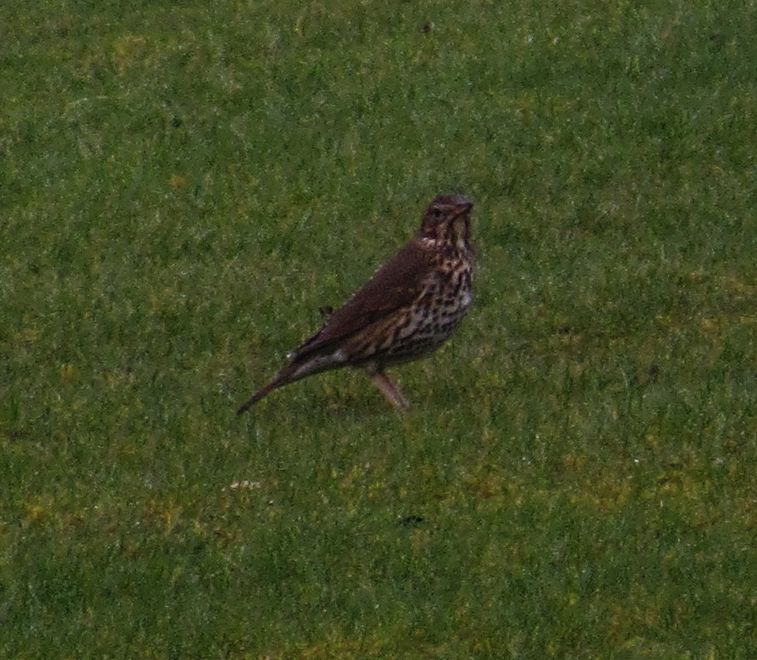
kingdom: Animalia
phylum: Chordata
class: Aves
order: Passeriformes
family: Turdidae
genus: Turdus
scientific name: Turdus philomelos
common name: Song thrush
